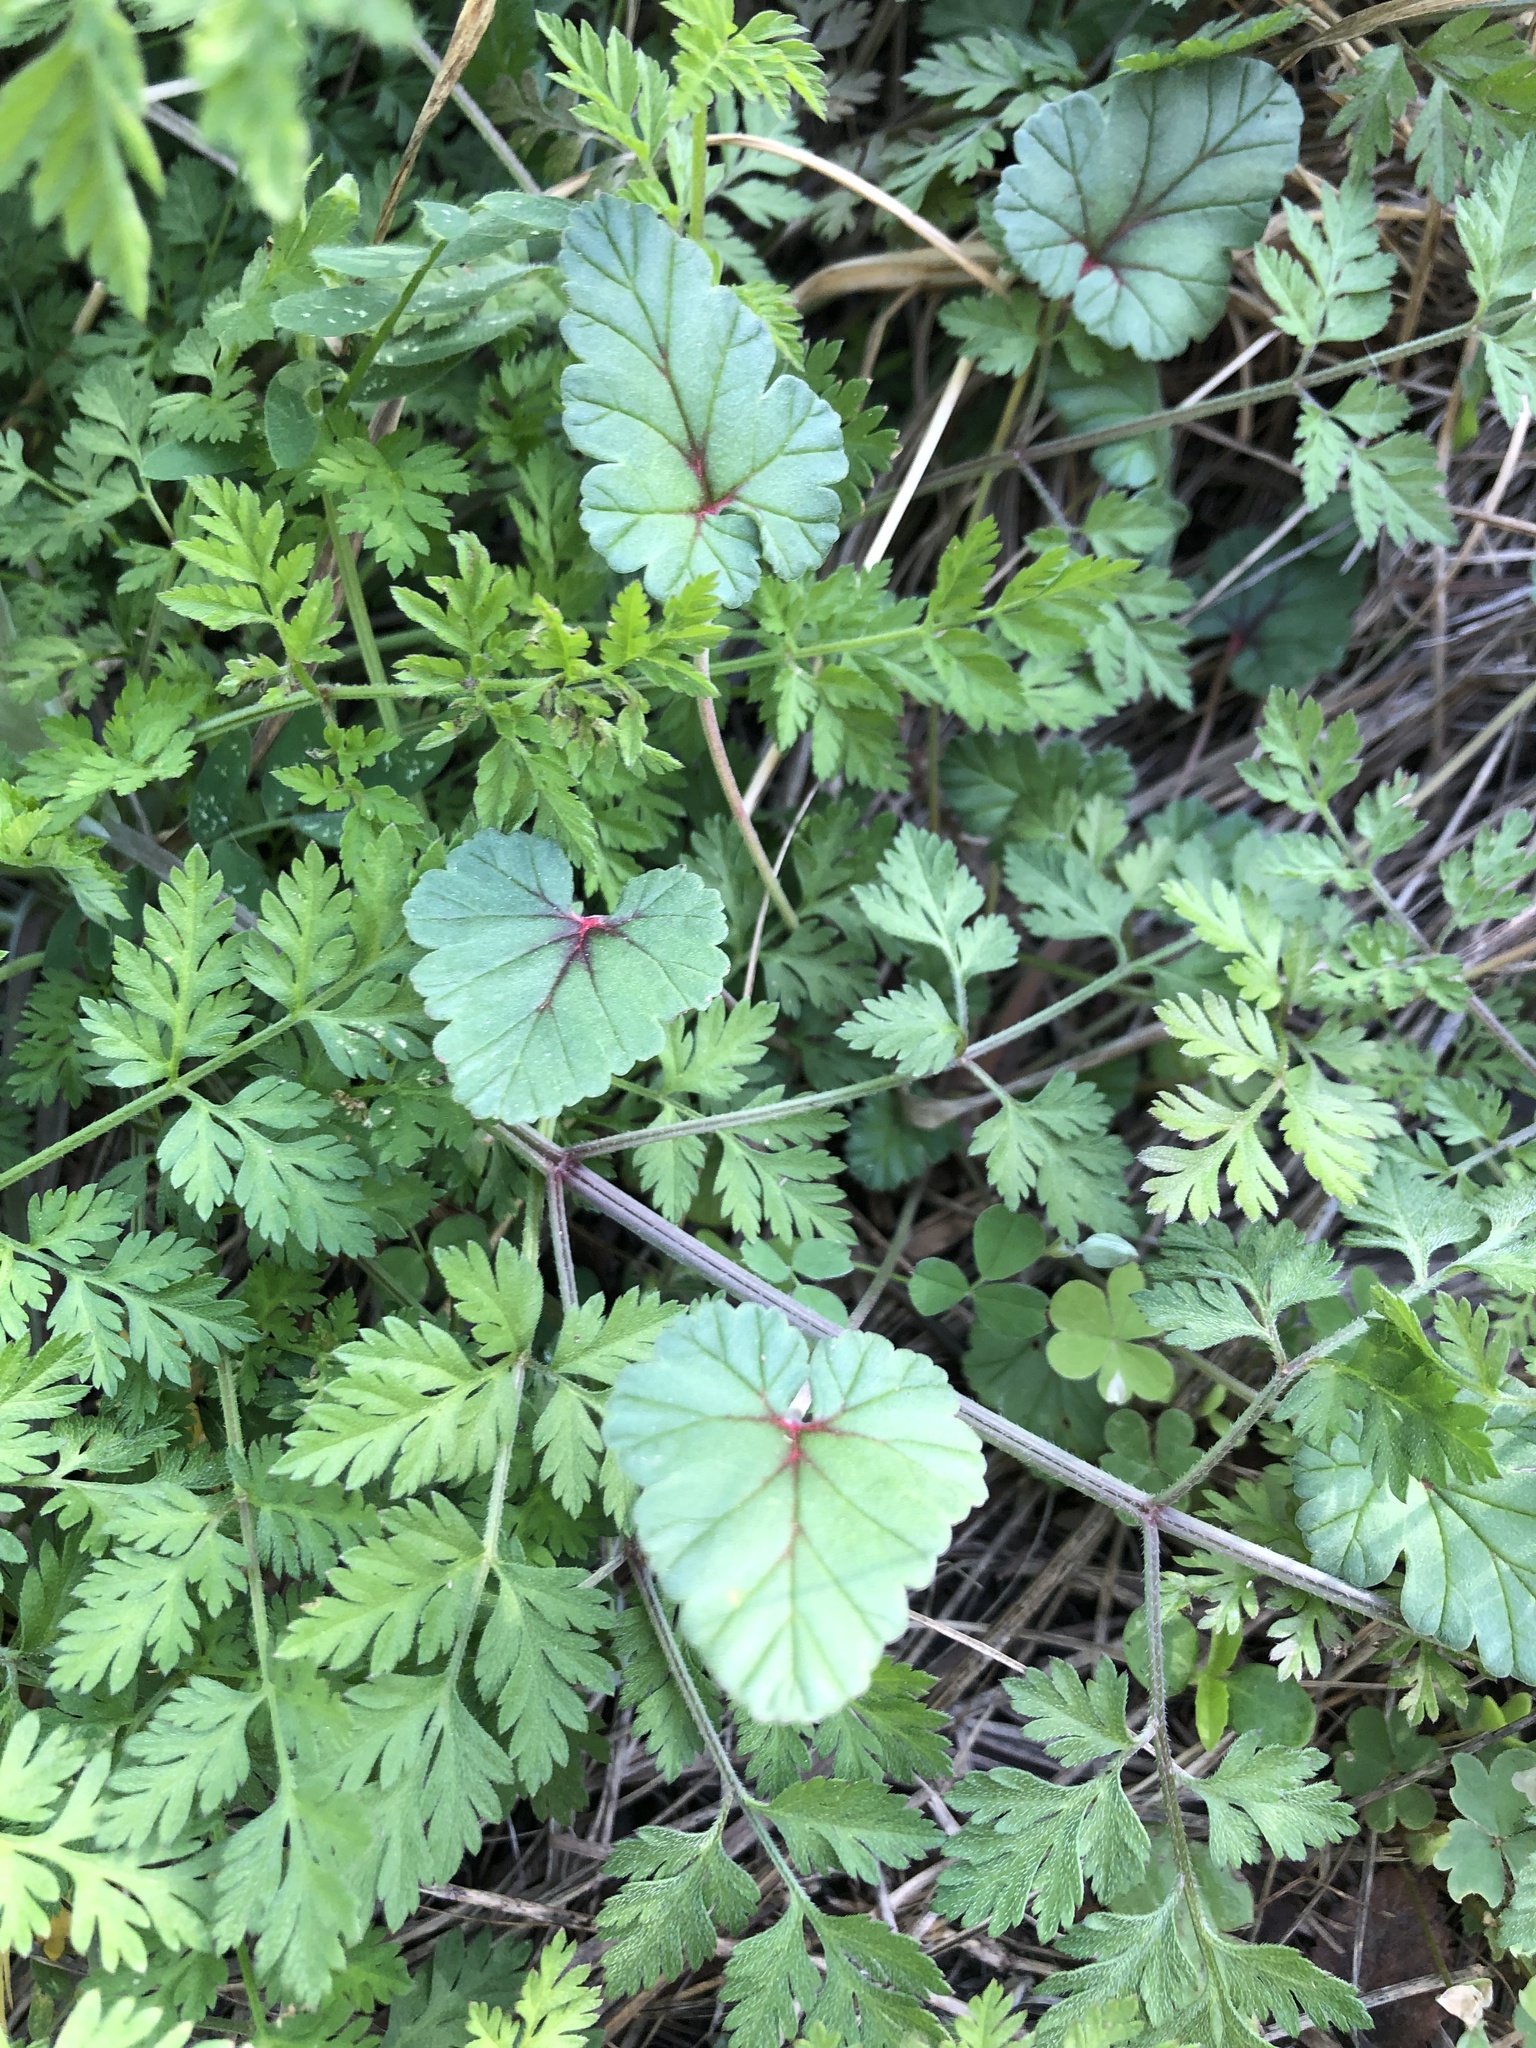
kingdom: Plantae
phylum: Tracheophyta
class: Magnoliopsida
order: Geraniales
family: Geraniaceae
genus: Erodium
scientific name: Erodium texanum
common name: Texas stork's-bill
